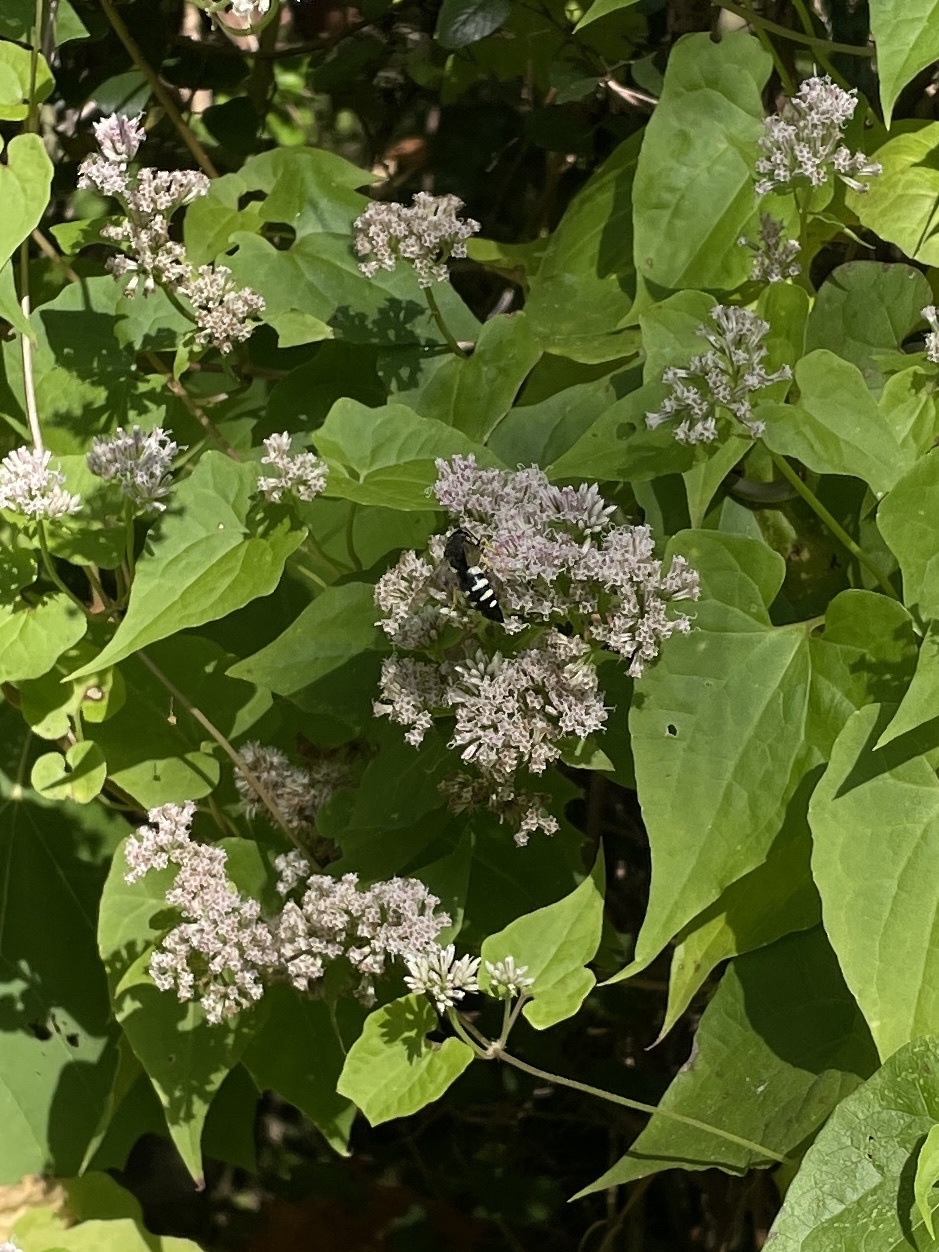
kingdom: Animalia
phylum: Arthropoda
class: Insecta
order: Hymenoptera
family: Crabronidae
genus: Bicyrtes
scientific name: Bicyrtes quadrifasciatus
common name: Four-banded stink bug hunter wasp
